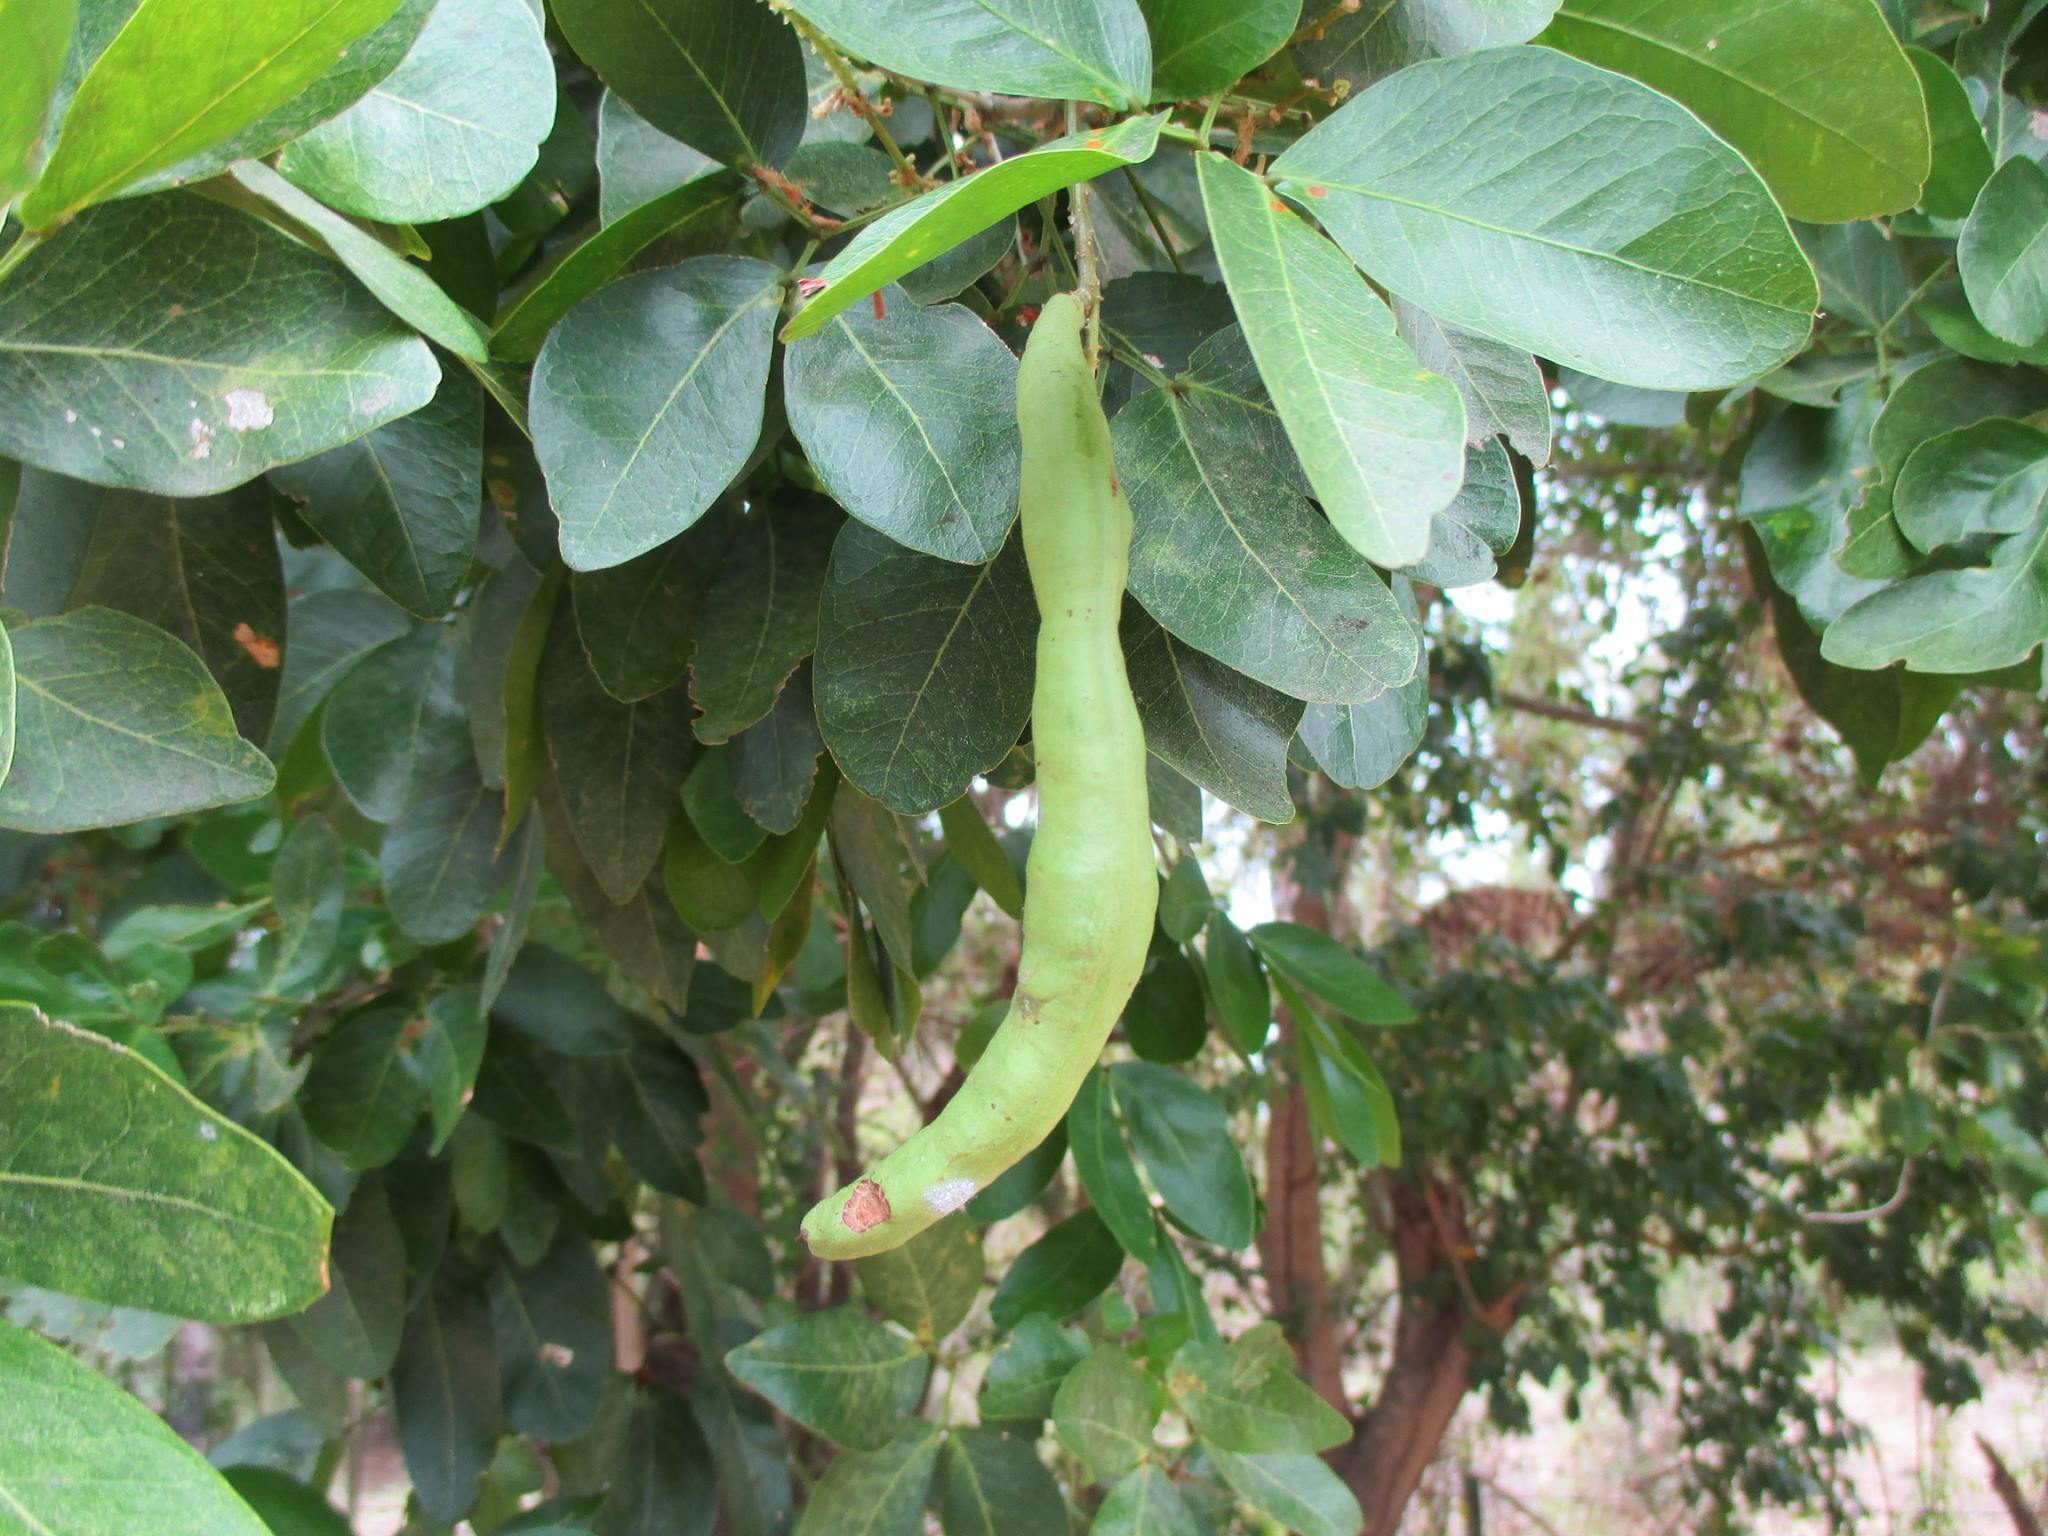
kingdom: Plantae
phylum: Tracheophyta
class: Magnoliopsida
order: Fabales
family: Fabaceae
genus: Pithecellobium
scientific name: Pithecellobium lanceolatum
